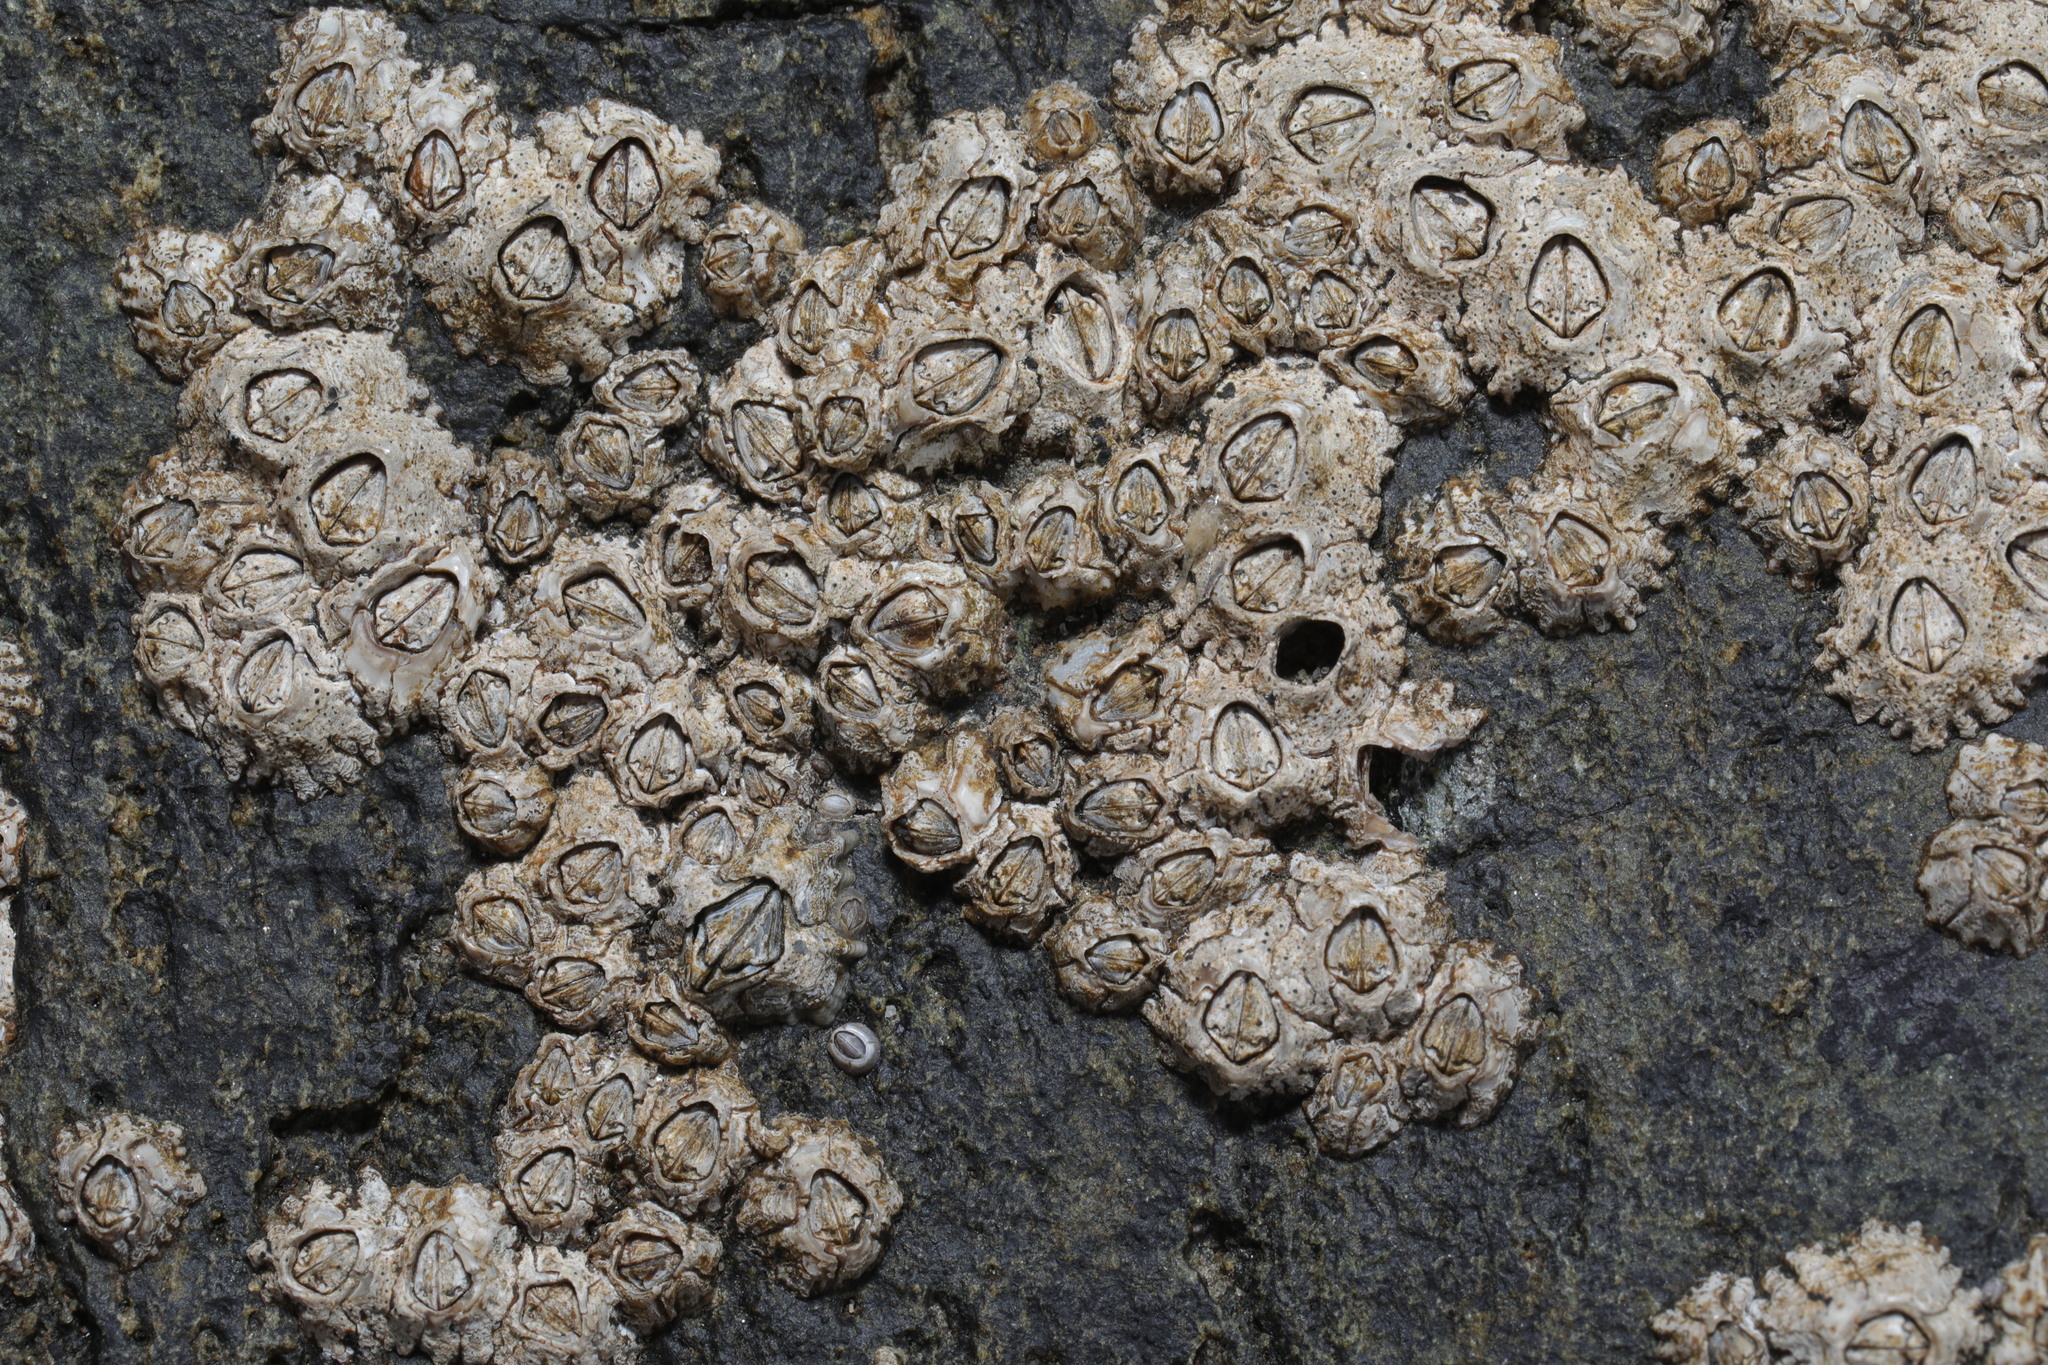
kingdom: Animalia
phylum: Arthropoda
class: Maxillopoda
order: Sessilia
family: Chthamalidae
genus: Chthamalus
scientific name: Chthamalus montagui
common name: Montagu's stellate barnacle
